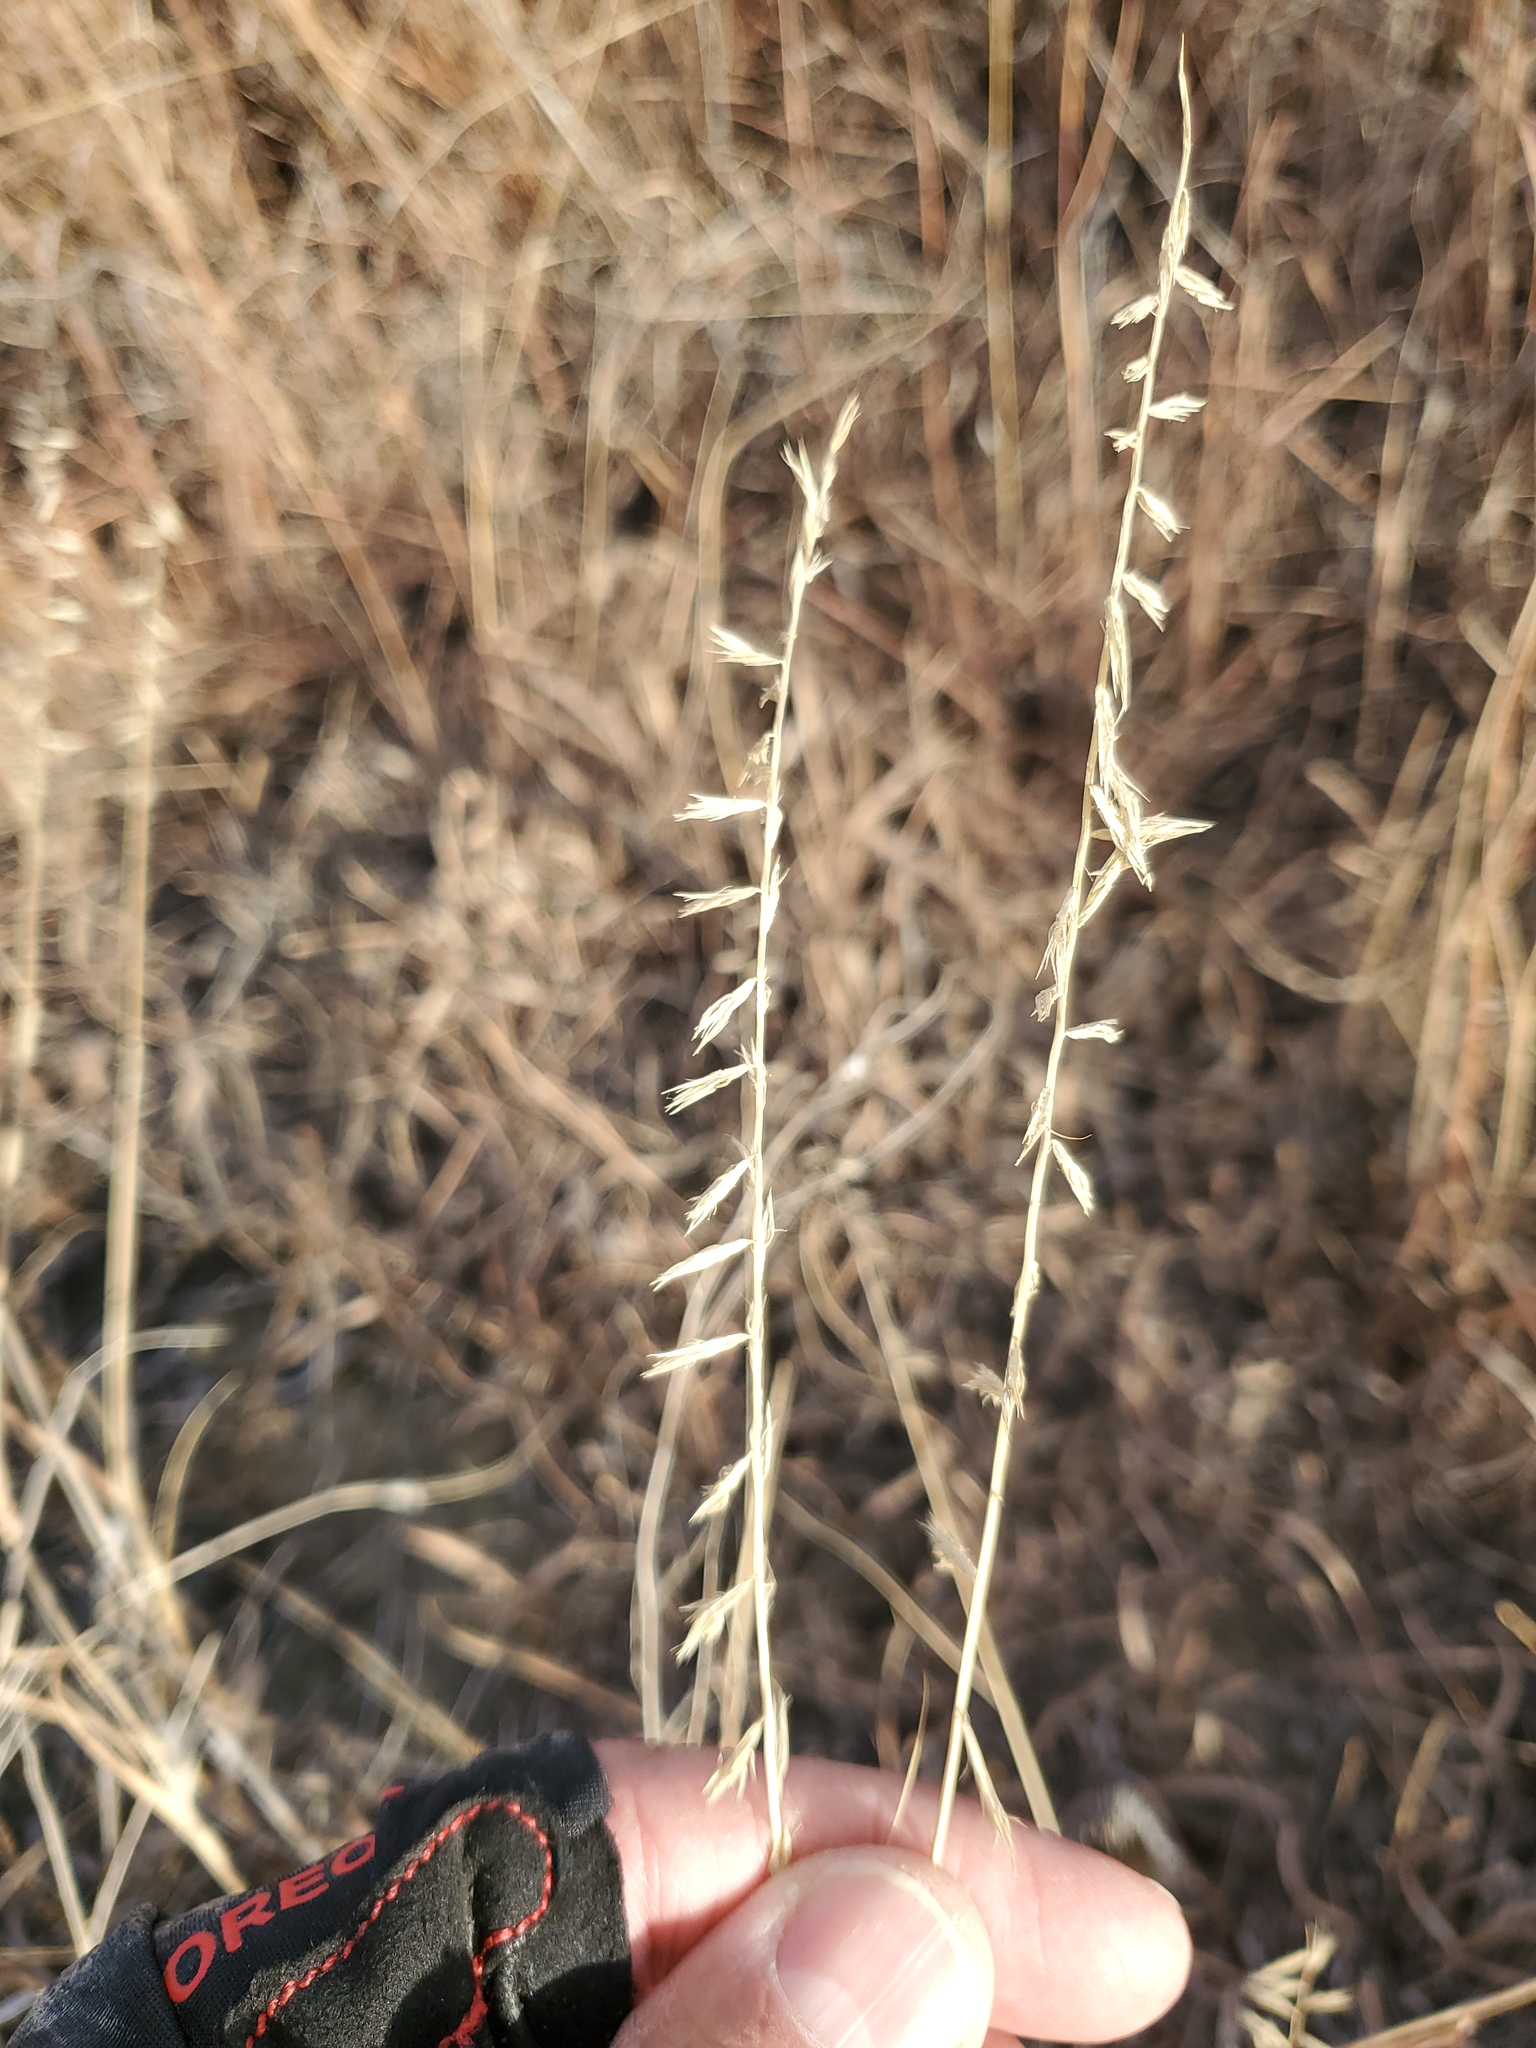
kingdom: Plantae
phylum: Tracheophyta
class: Liliopsida
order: Poales
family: Poaceae
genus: Bouteloua
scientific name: Bouteloua curtipendula
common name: Side-oats grama
